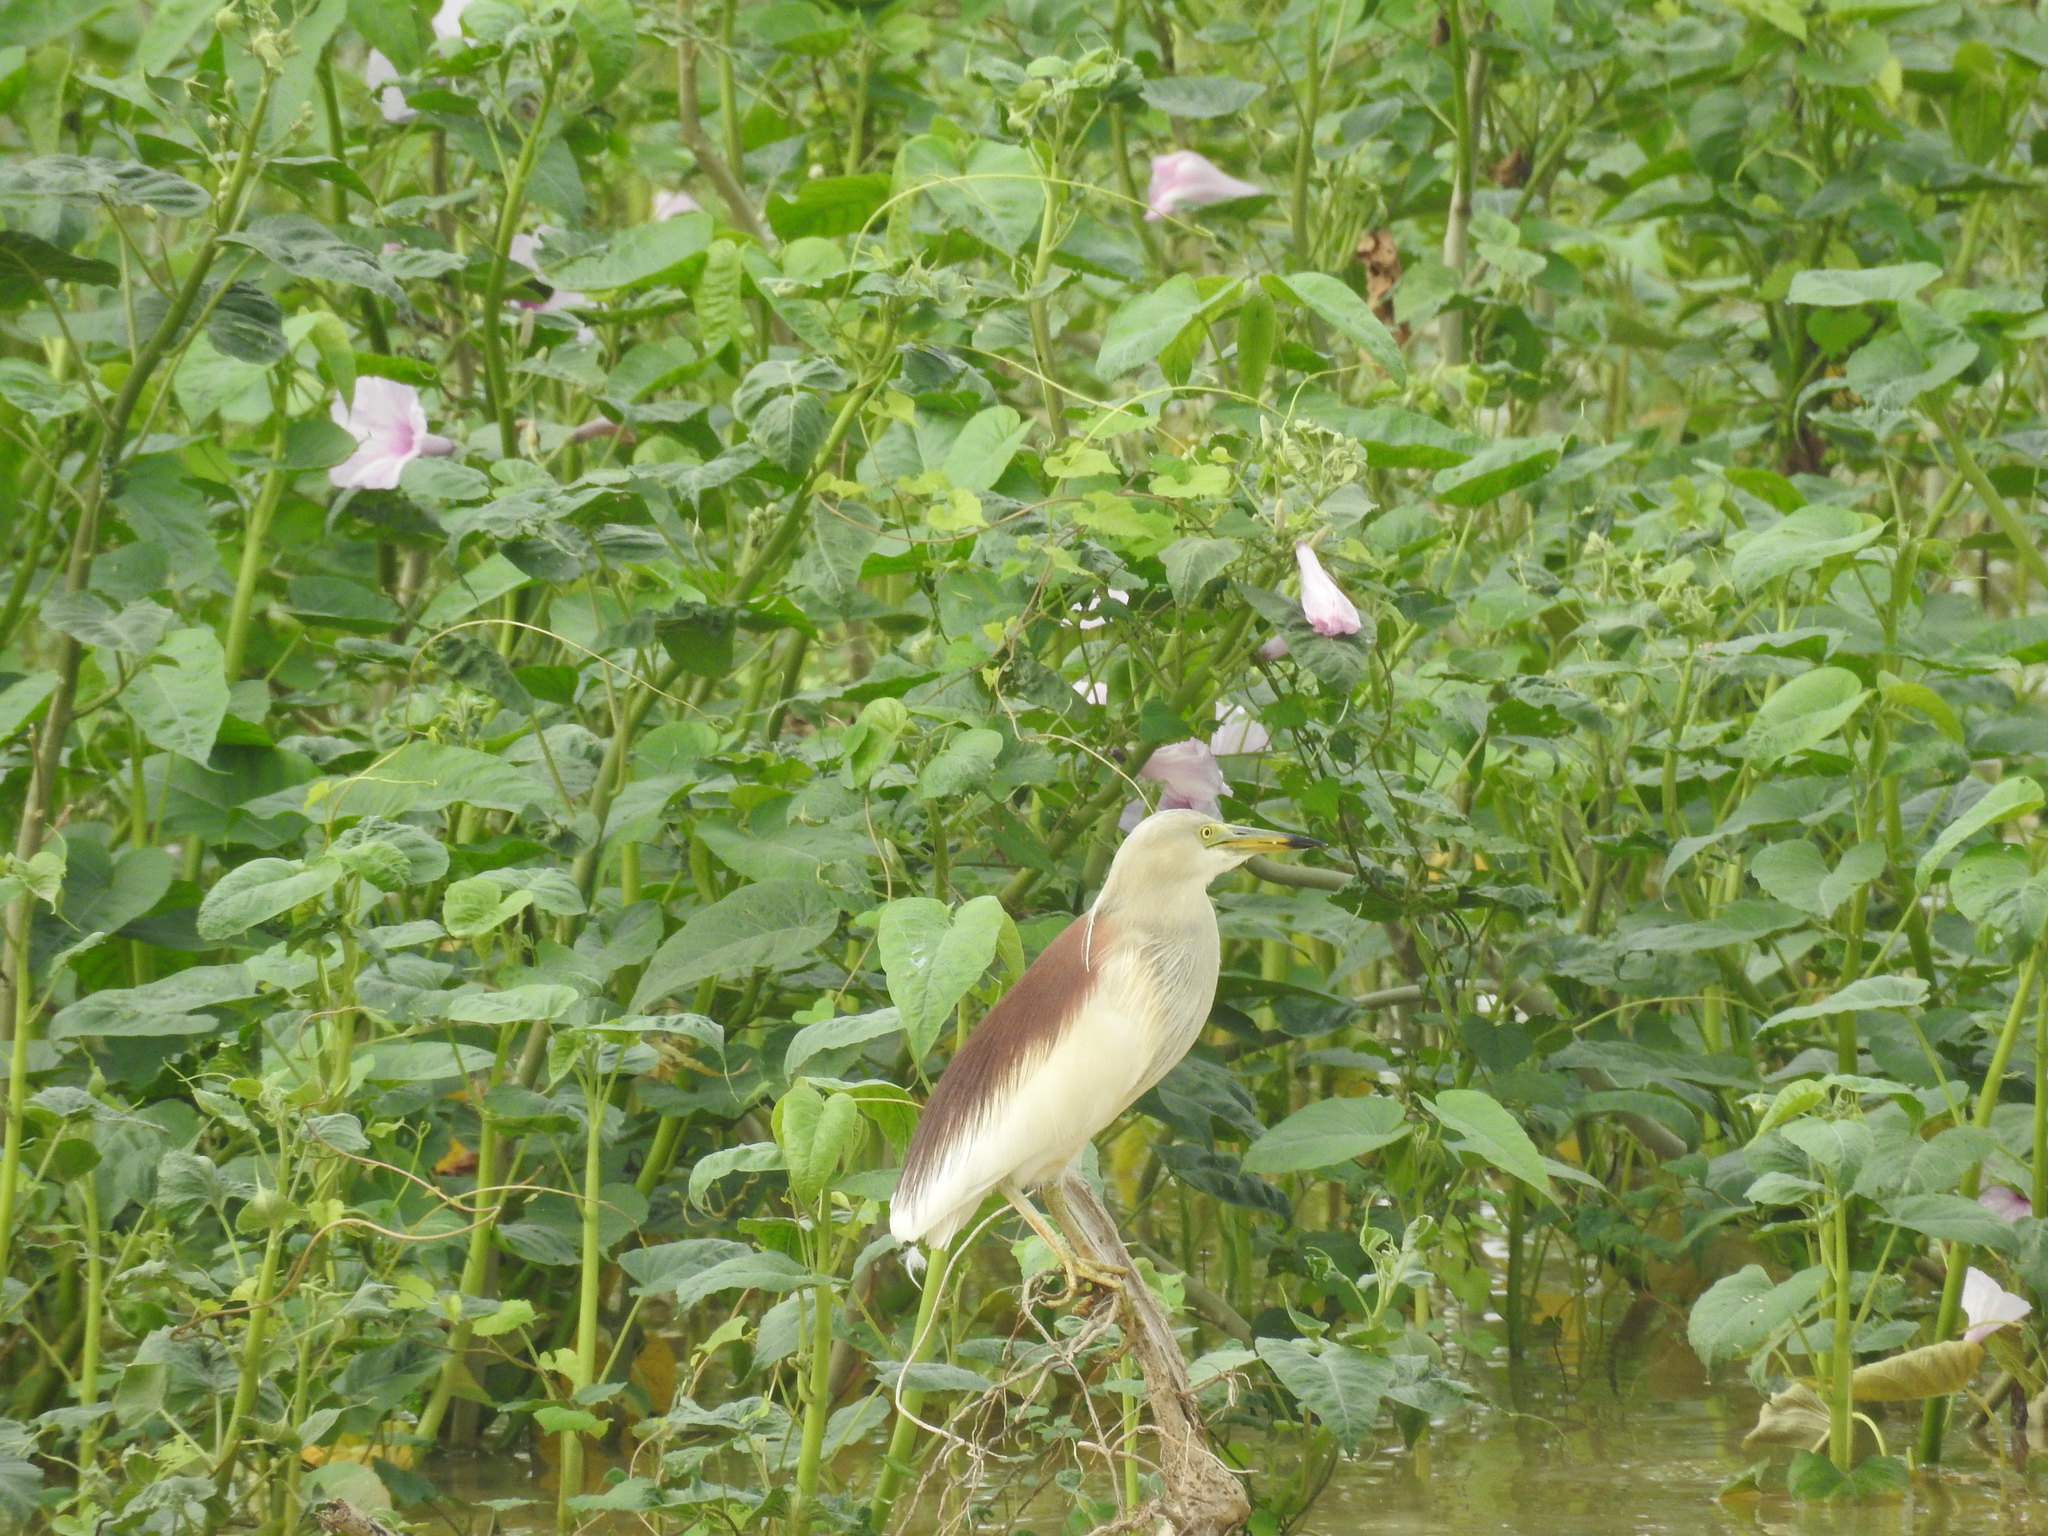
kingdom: Animalia
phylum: Chordata
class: Aves
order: Pelecaniformes
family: Ardeidae
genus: Ardeola
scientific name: Ardeola grayii
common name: Indian pond heron
